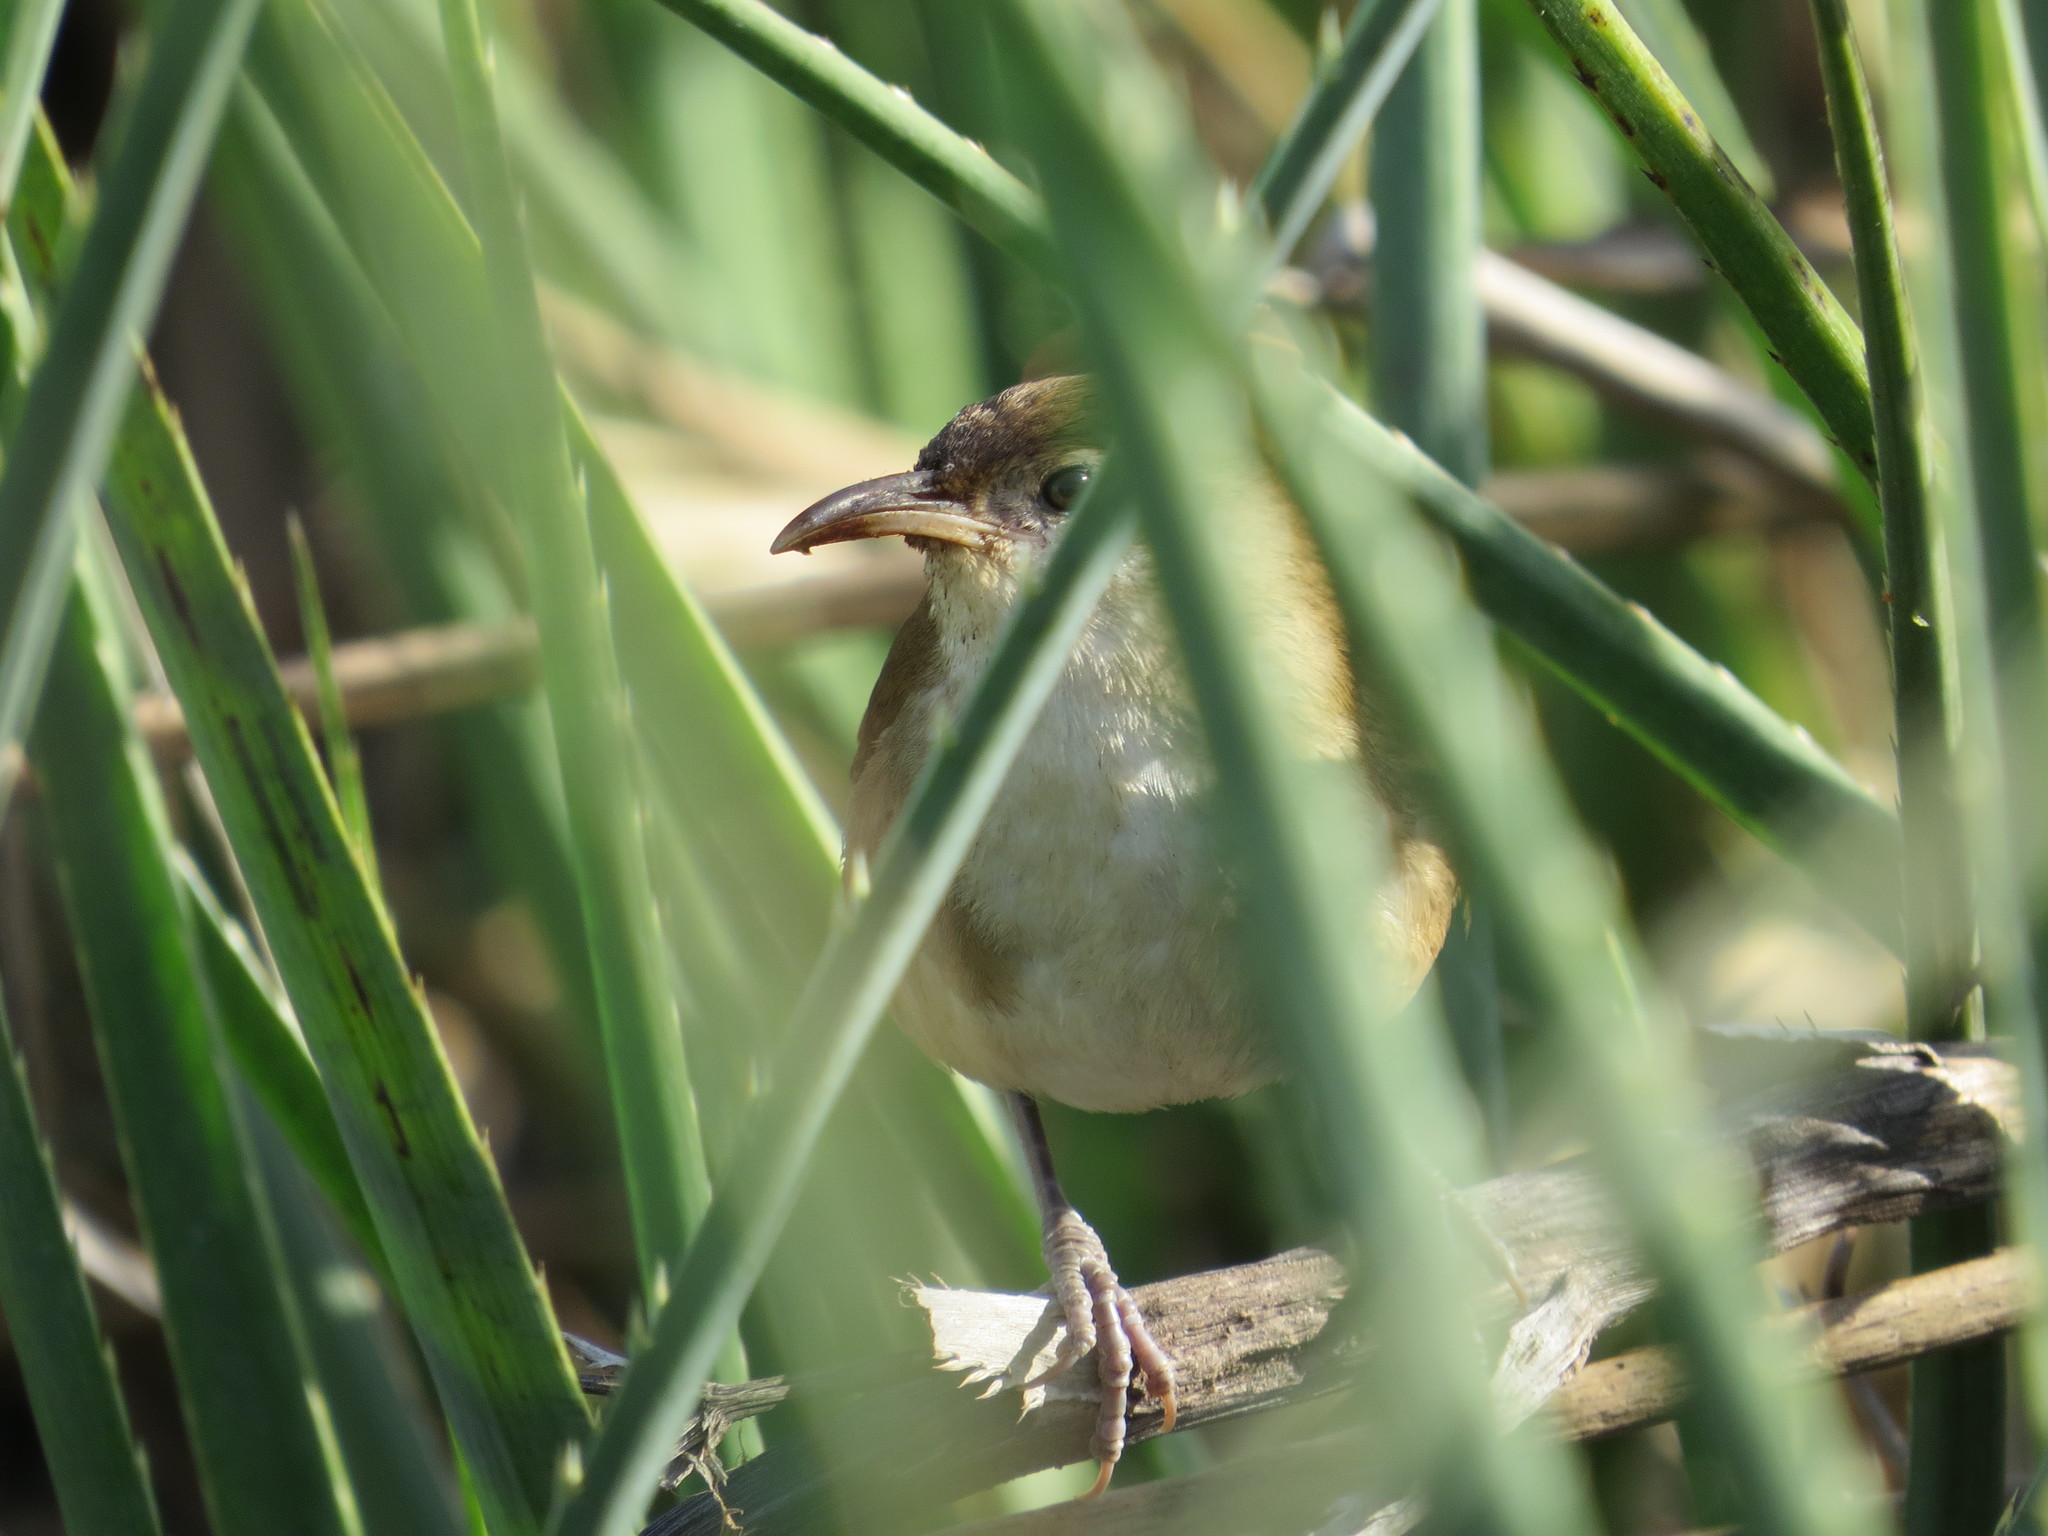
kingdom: Animalia
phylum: Chordata
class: Aves
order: Passeriformes
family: Furnariidae
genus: Limnornis
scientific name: Limnornis curvirostris
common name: Curve-billed reedhaunter
